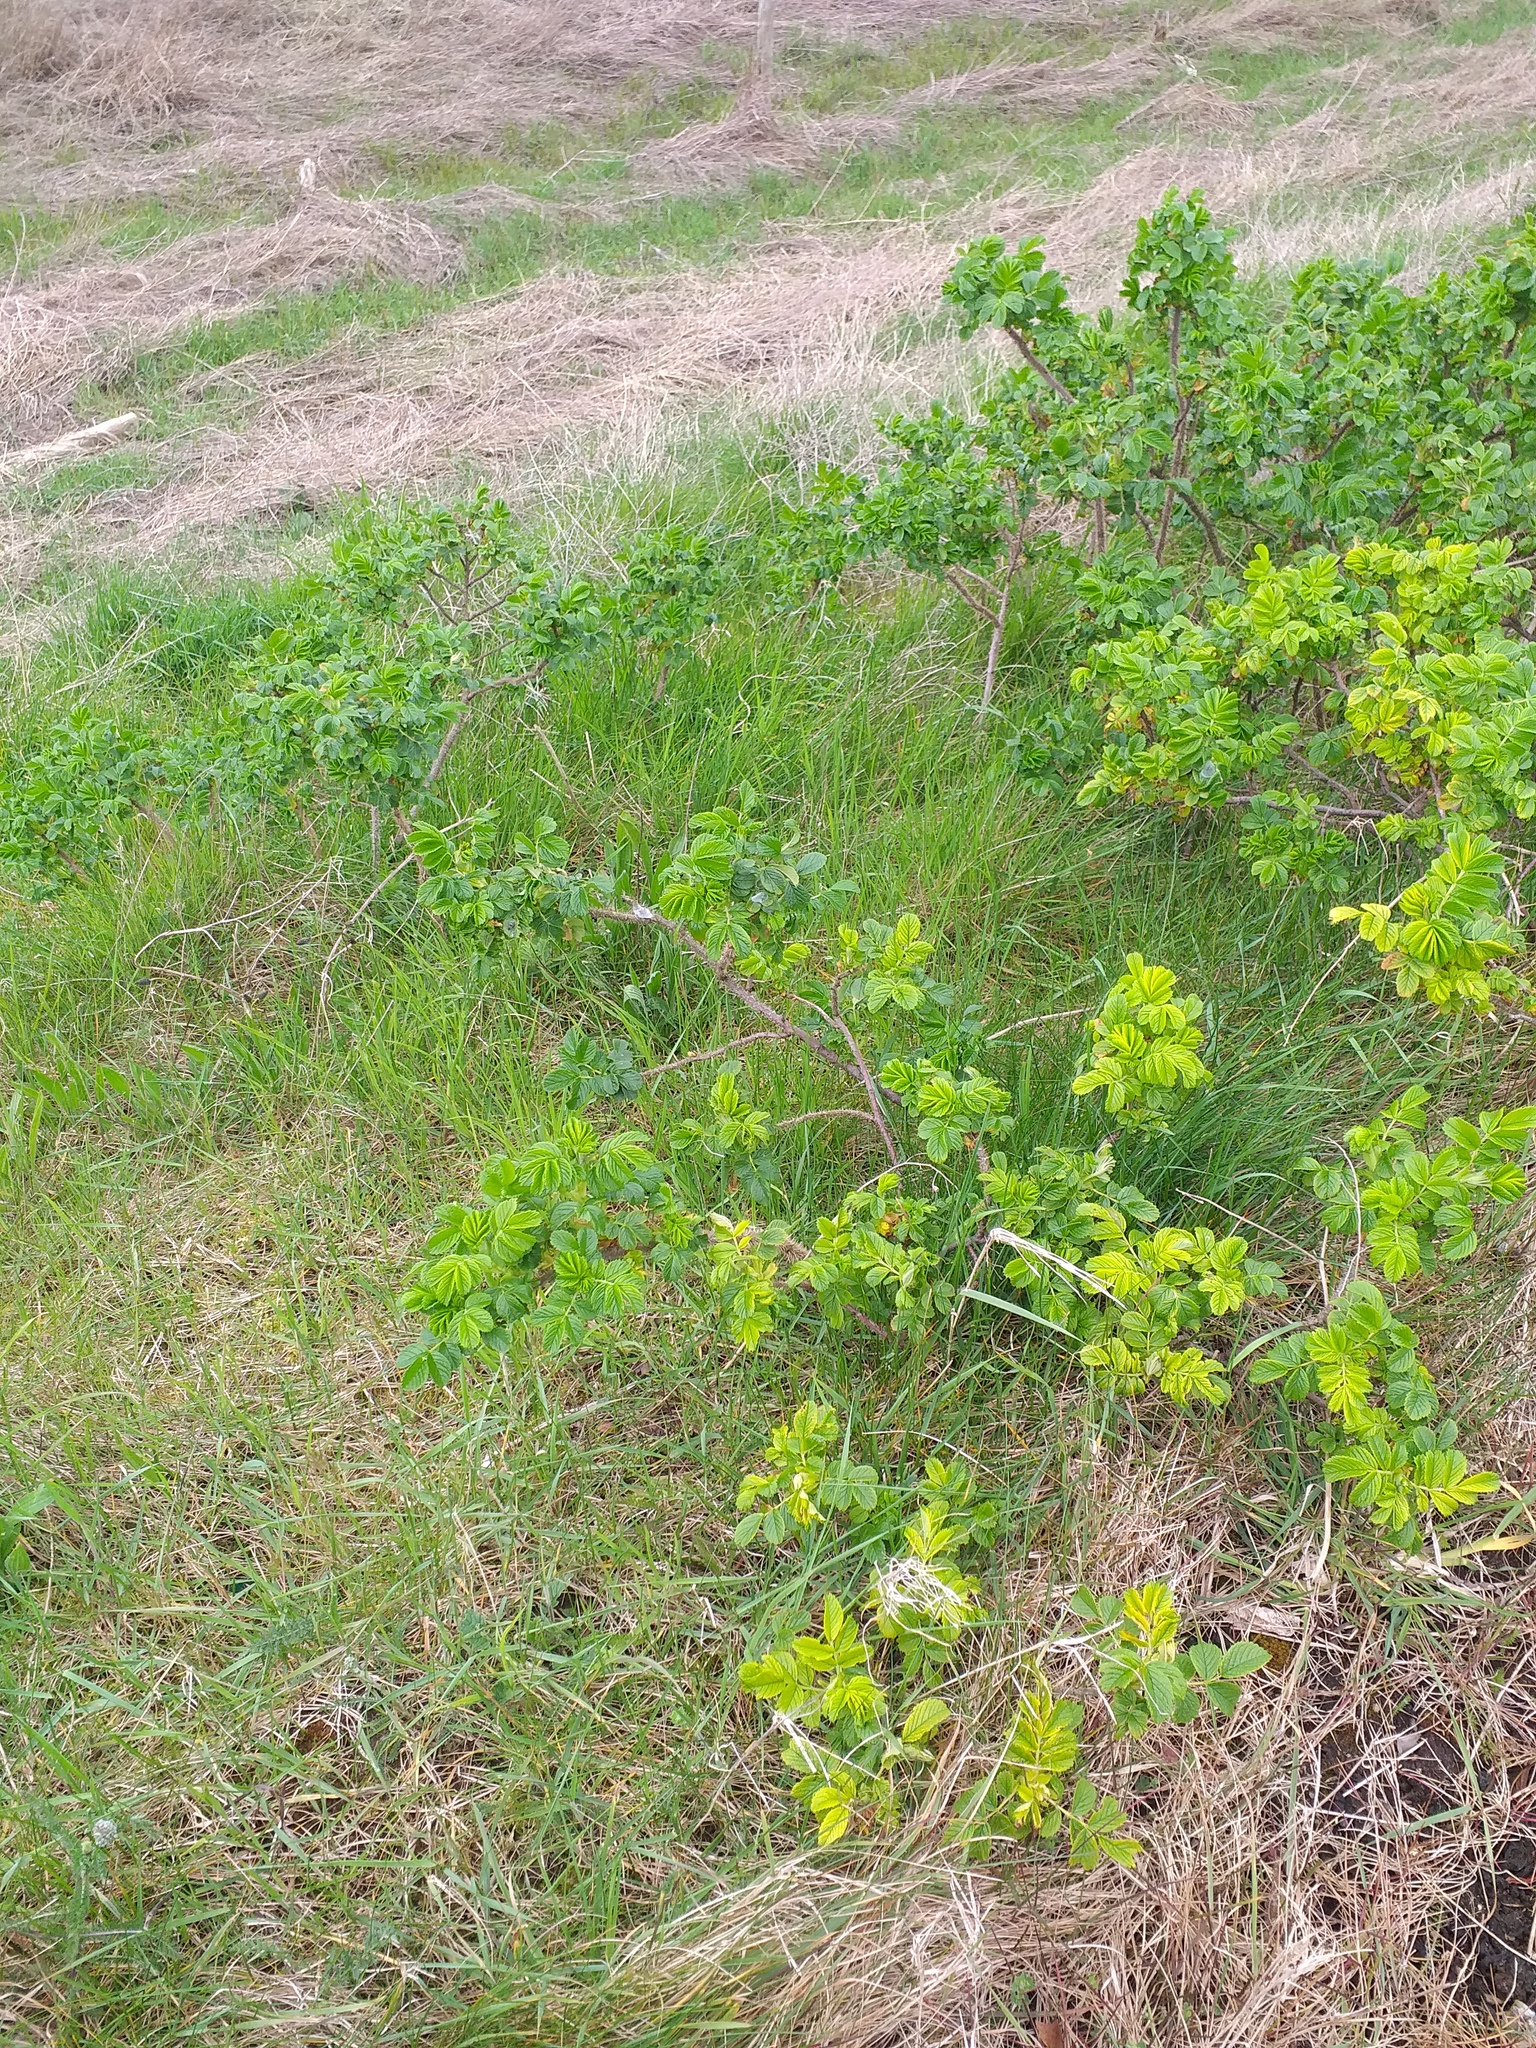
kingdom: Plantae
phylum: Tracheophyta
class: Magnoliopsida
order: Rosales
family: Rosaceae
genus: Rosa
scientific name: Rosa rugosa
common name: Japanese rose
